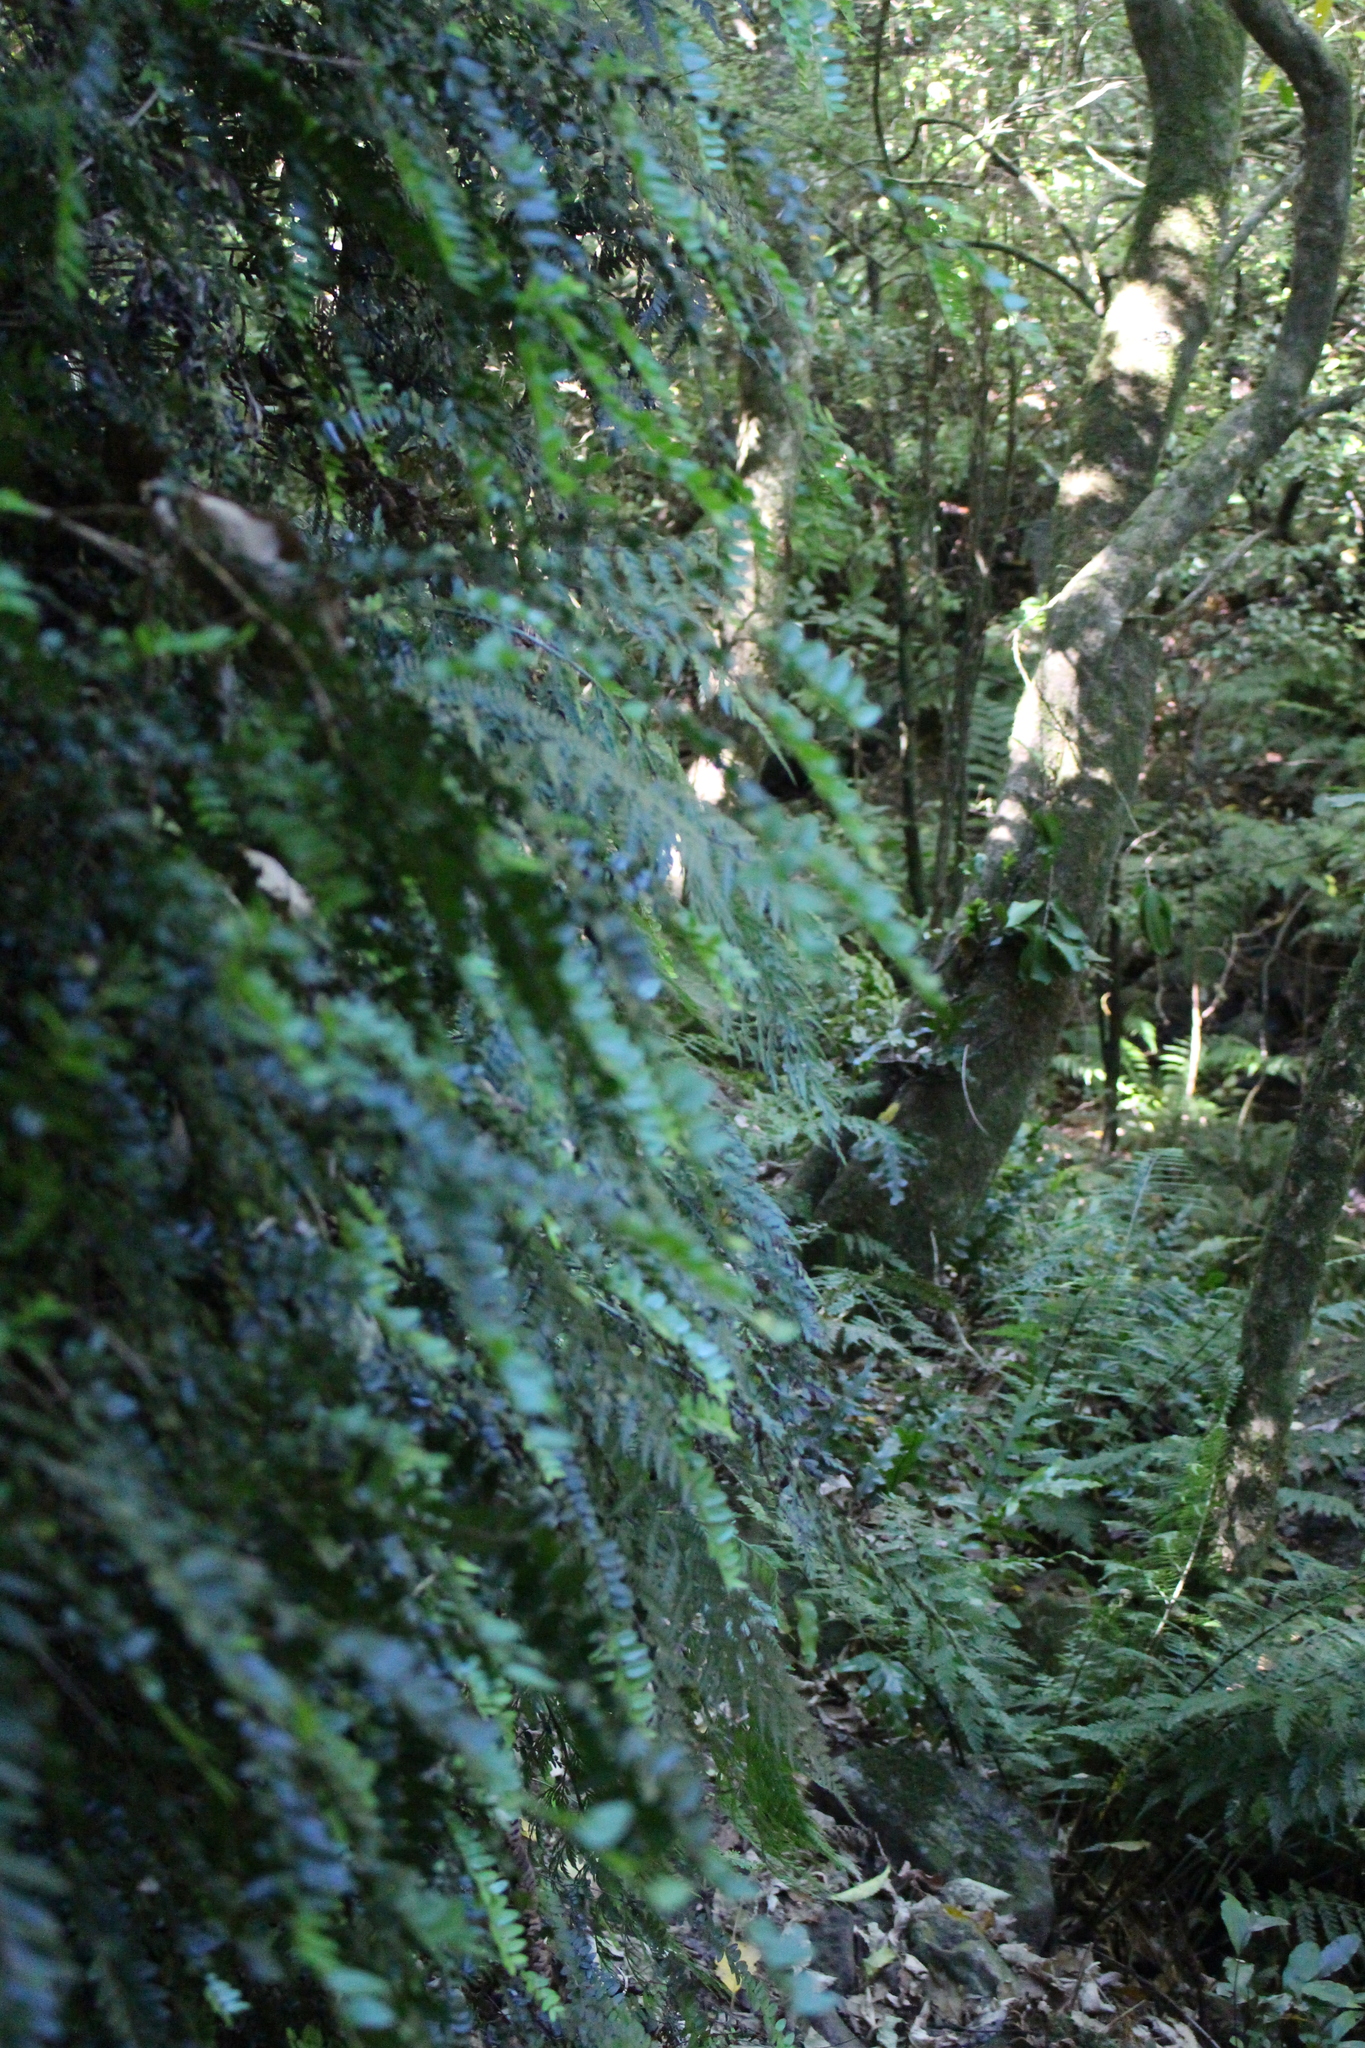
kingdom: Plantae
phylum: Tracheophyta
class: Magnoliopsida
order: Myrtales
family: Myrtaceae
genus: Metrosideros
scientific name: Metrosideros diffusa
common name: Small ratavine
